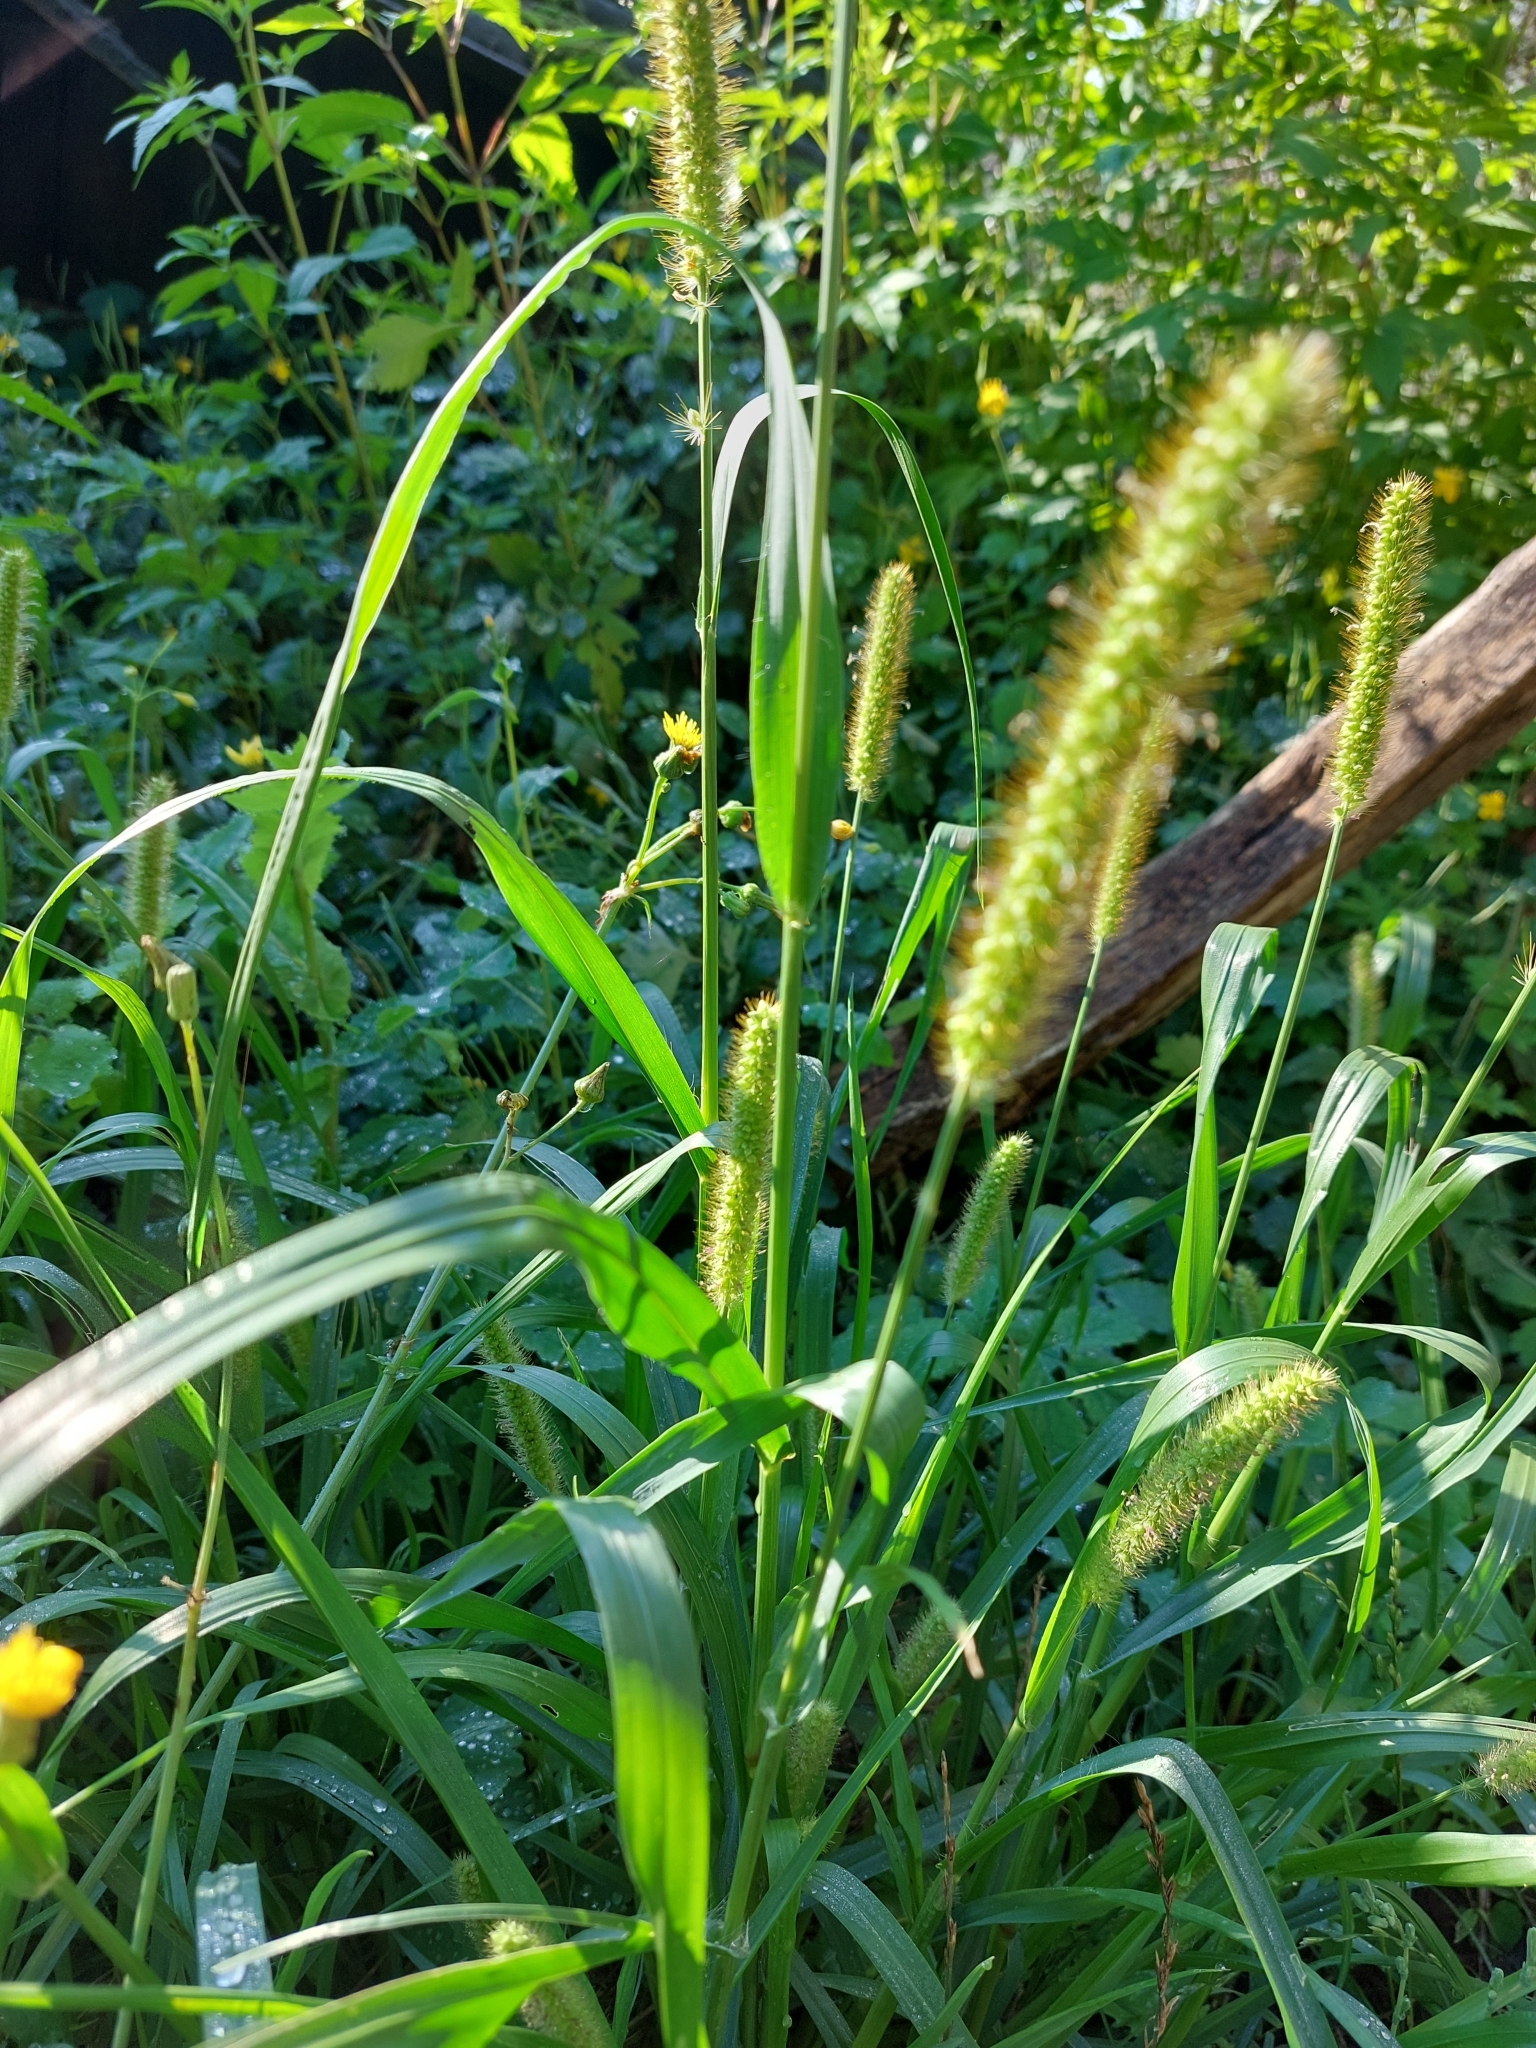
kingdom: Plantae
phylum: Tracheophyta
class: Liliopsida
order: Poales
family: Poaceae
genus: Setaria
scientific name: Setaria pumila
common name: Yellow bristle-grass
